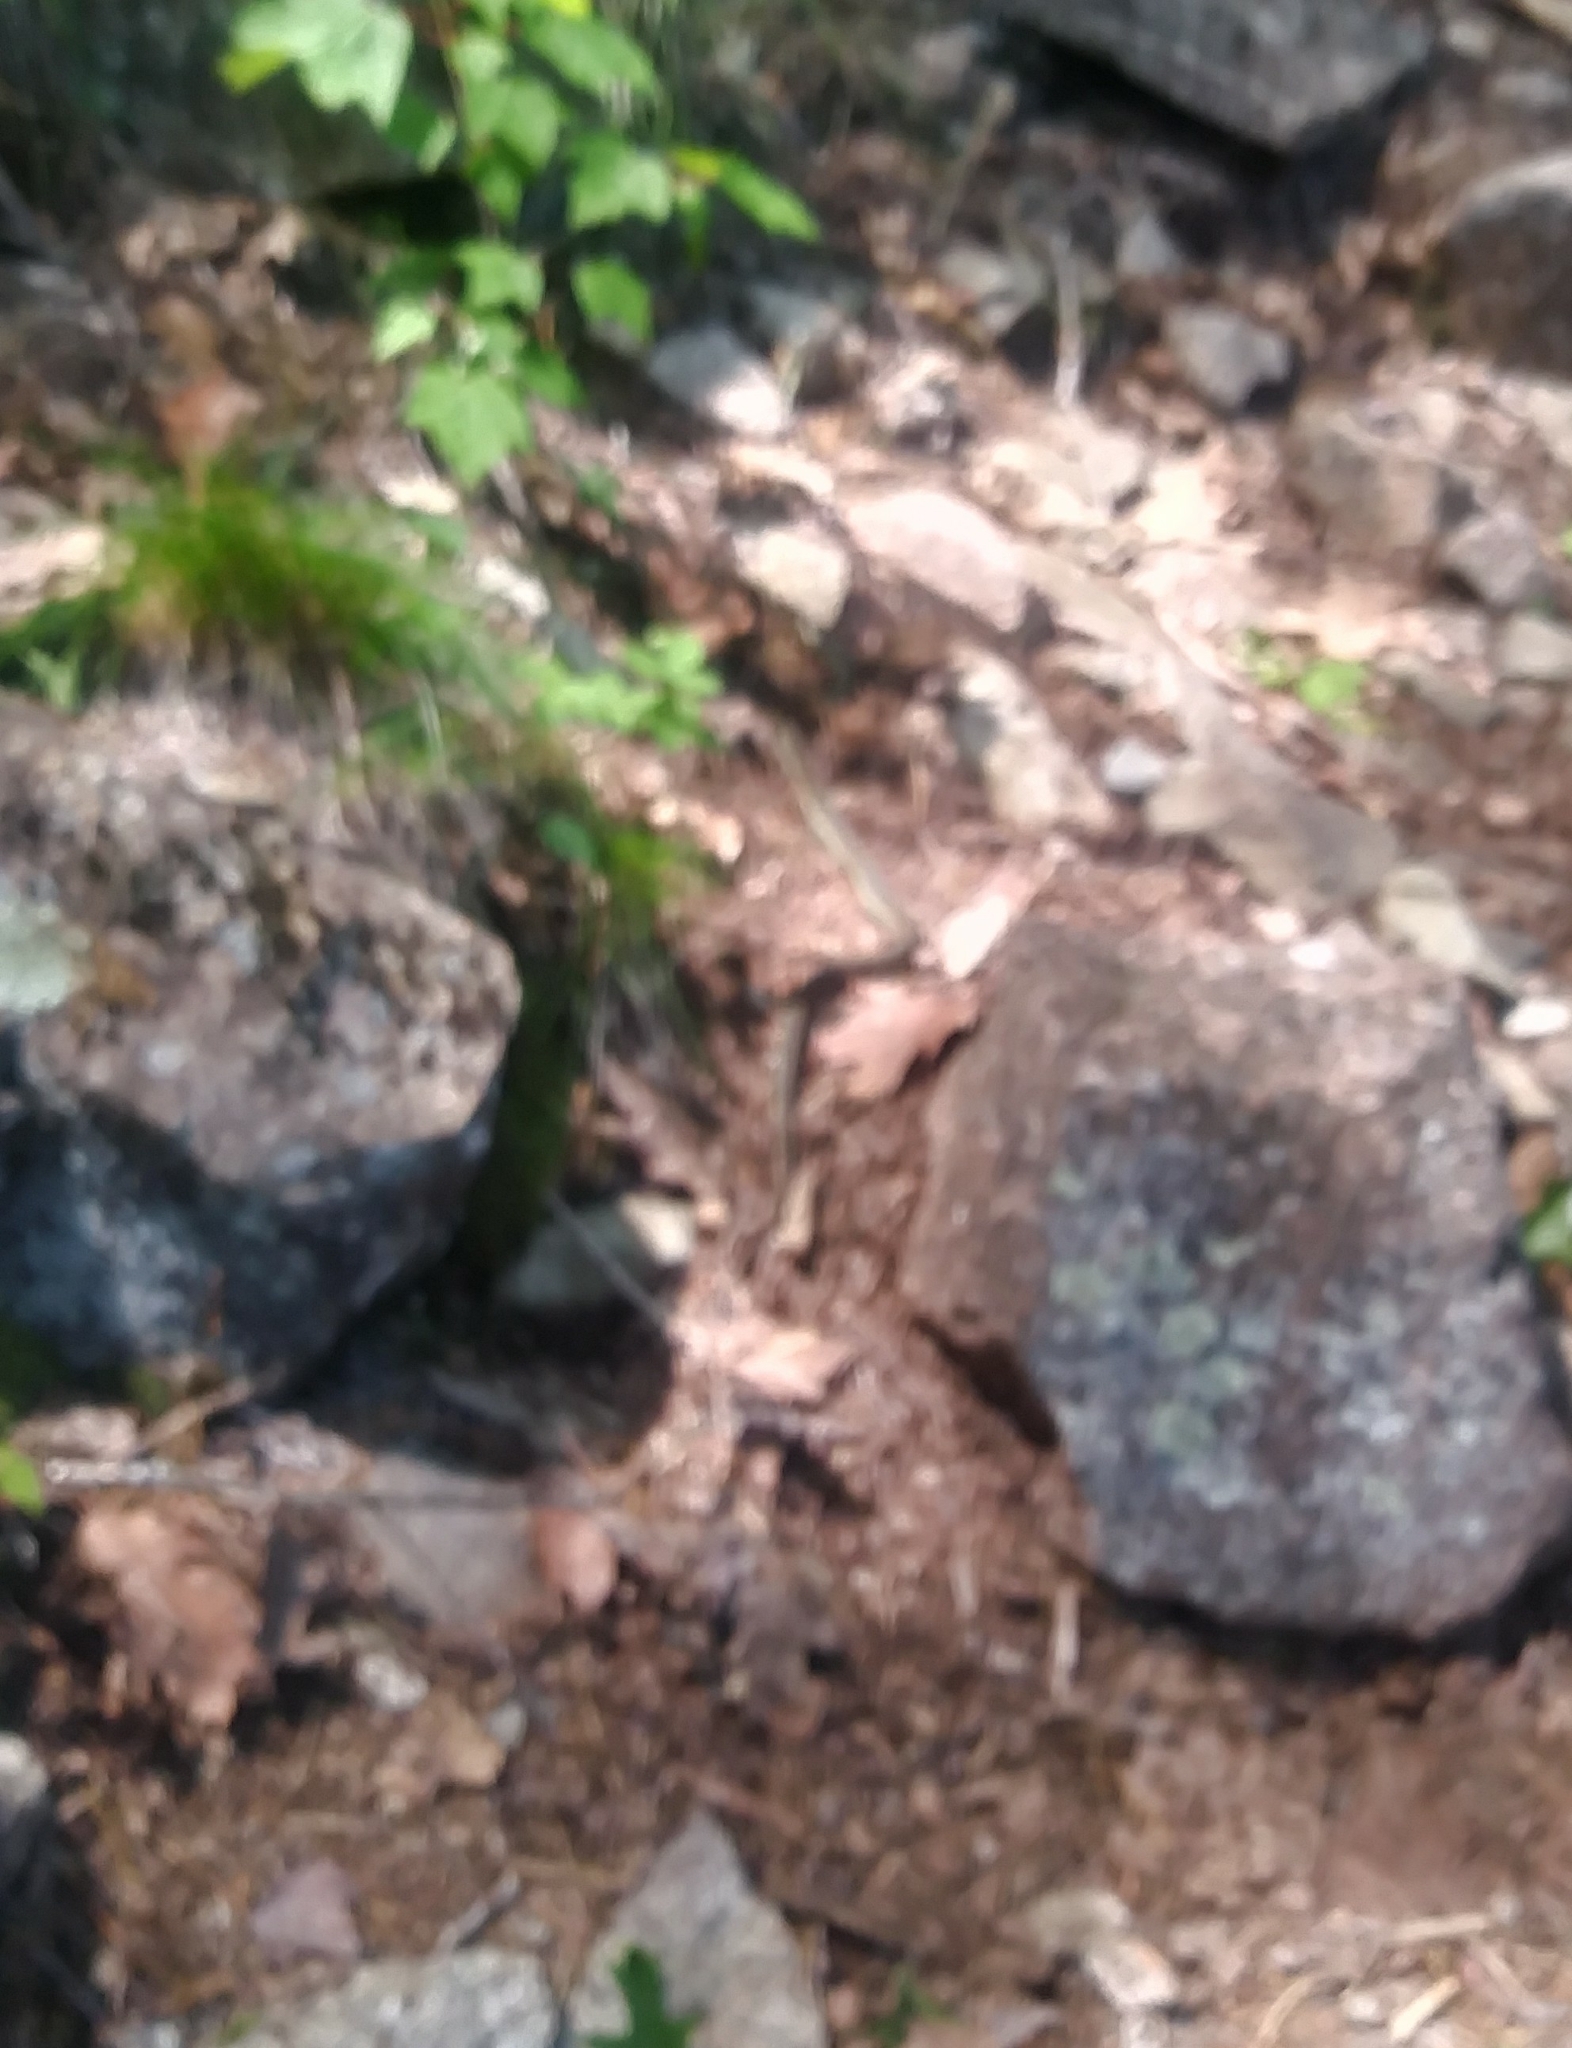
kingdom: Animalia
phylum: Chordata
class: Squamata
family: Colubridae
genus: Thamnophis
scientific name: Thamnophis sirtalis
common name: Common garter snake
